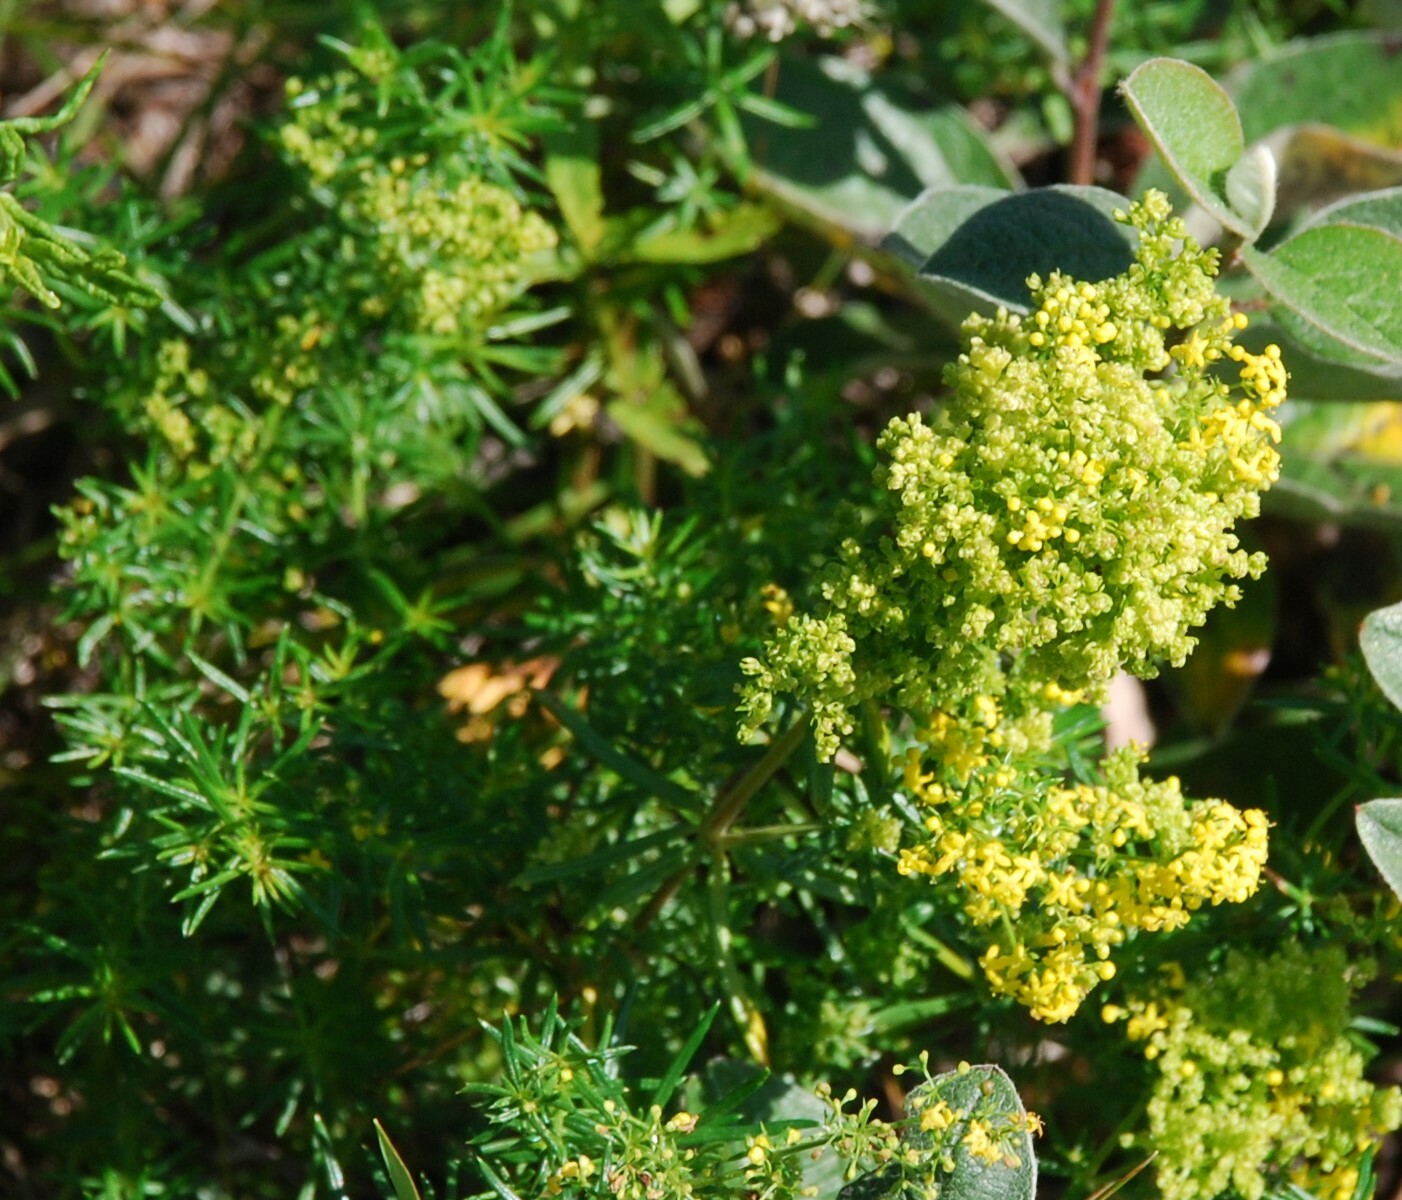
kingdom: Plantae
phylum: Tracheophyta
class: Magnoliopsida
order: Gentianales
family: Rubiaceae
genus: Galium
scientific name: Galium verum
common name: Lady's bedstraw
